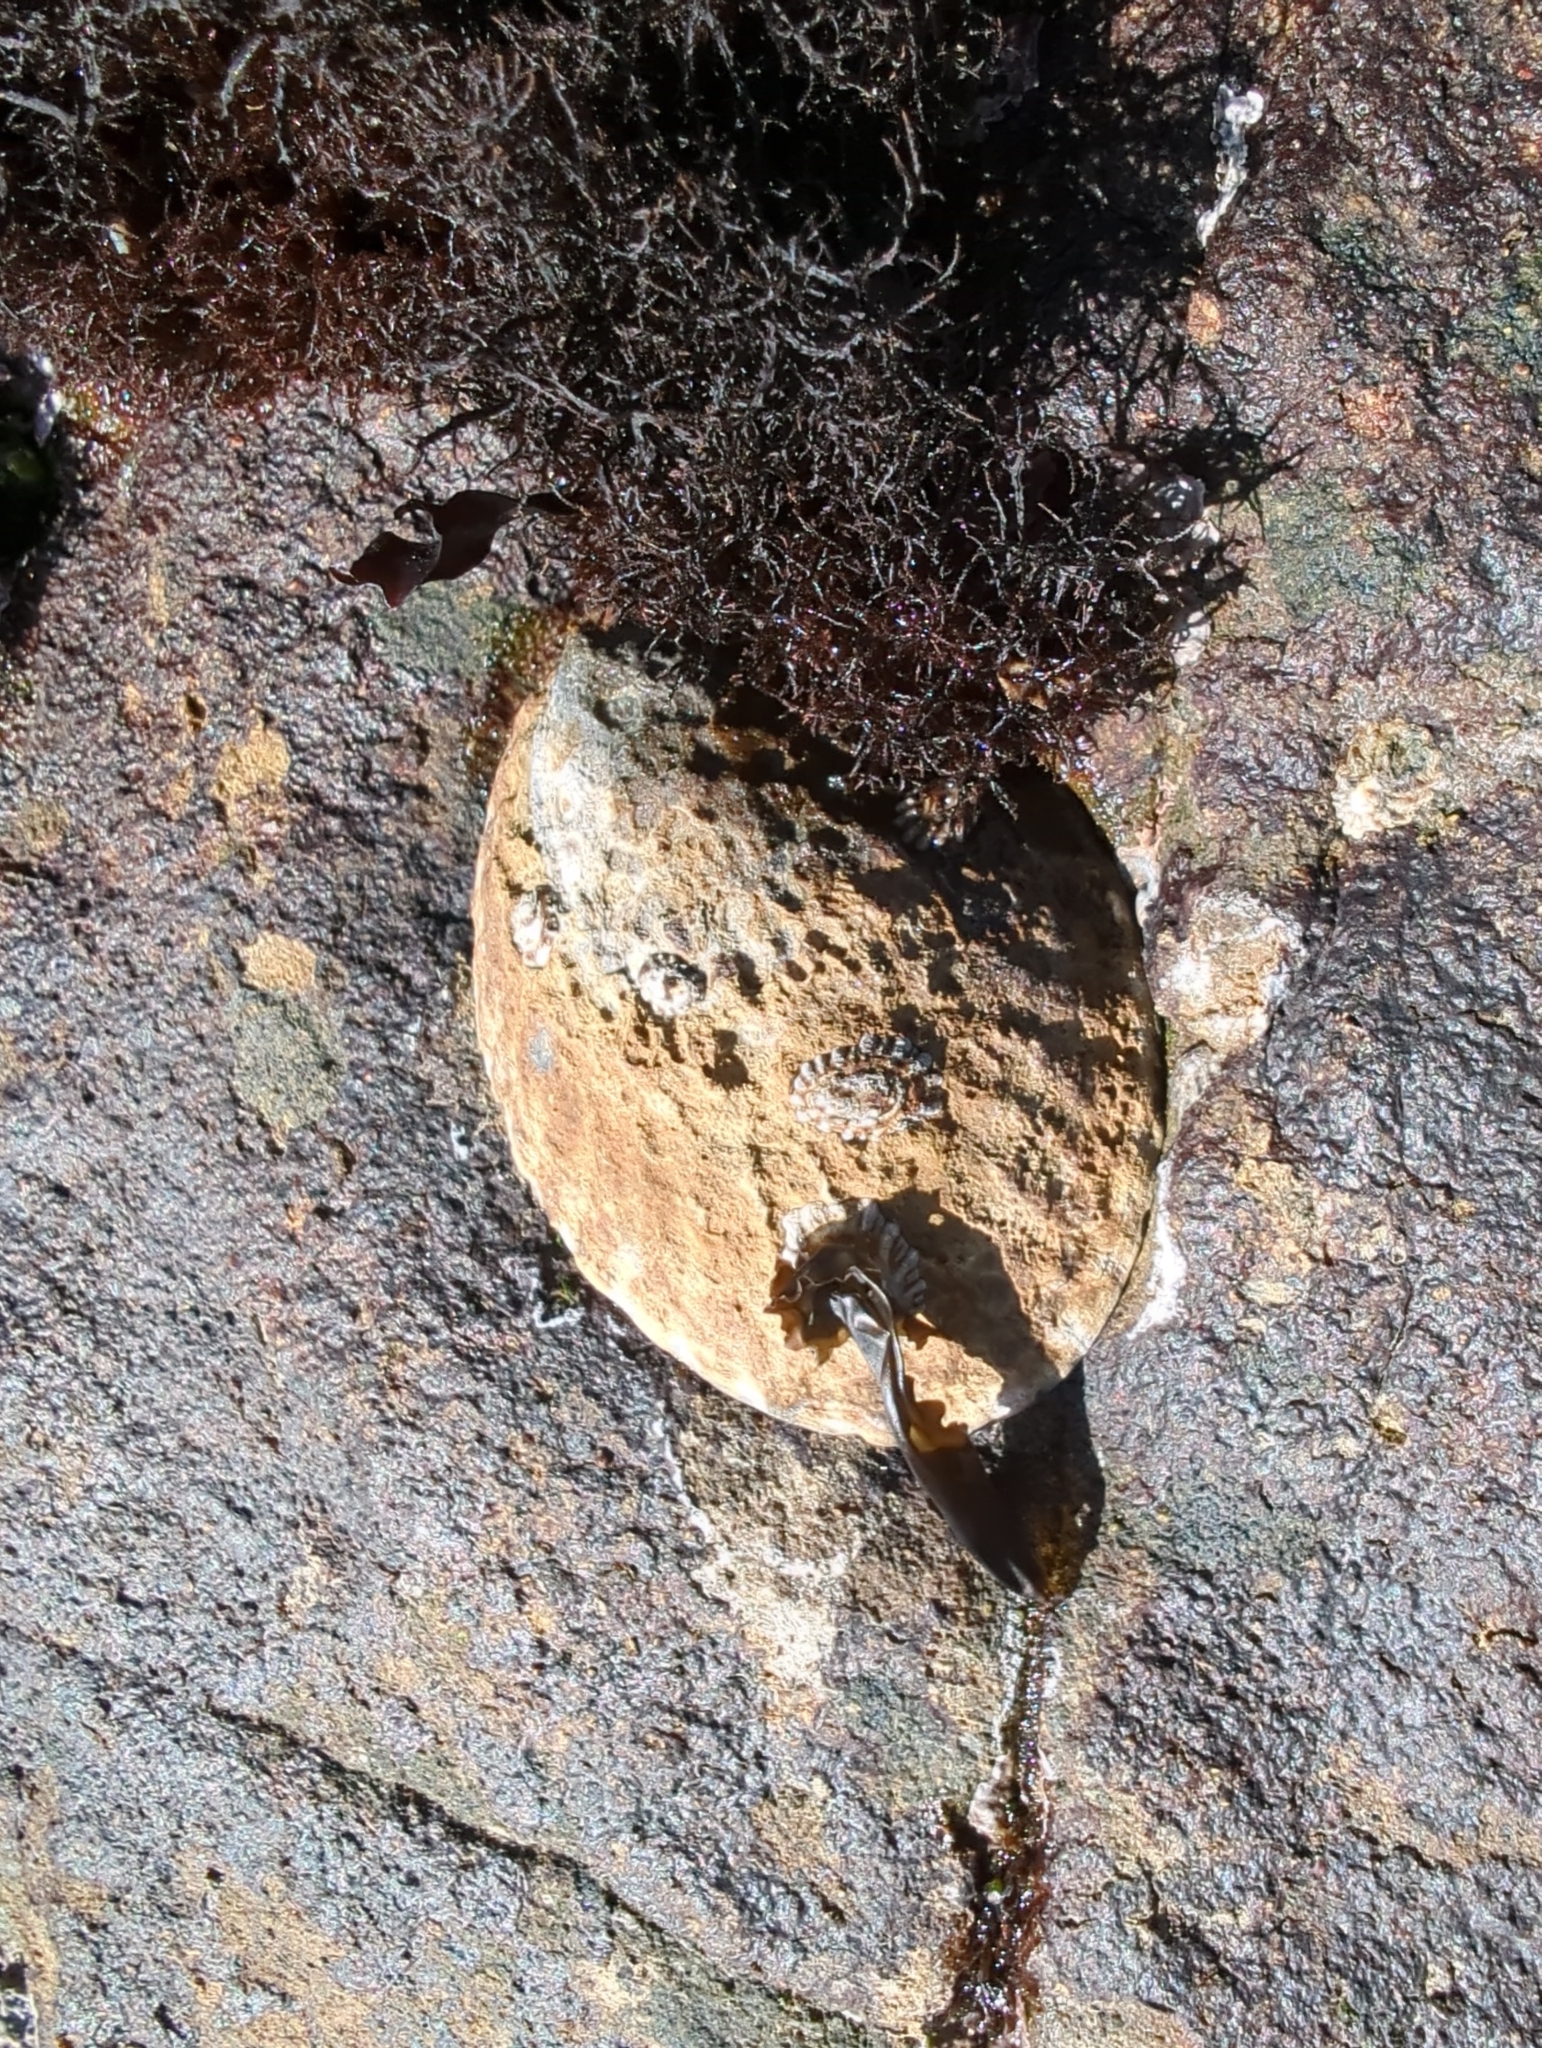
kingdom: Animalia
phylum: Mollusca
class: Gastropoda
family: Lottiidae
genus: Lottia
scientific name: Lottia gigantea
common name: Owl limpet
